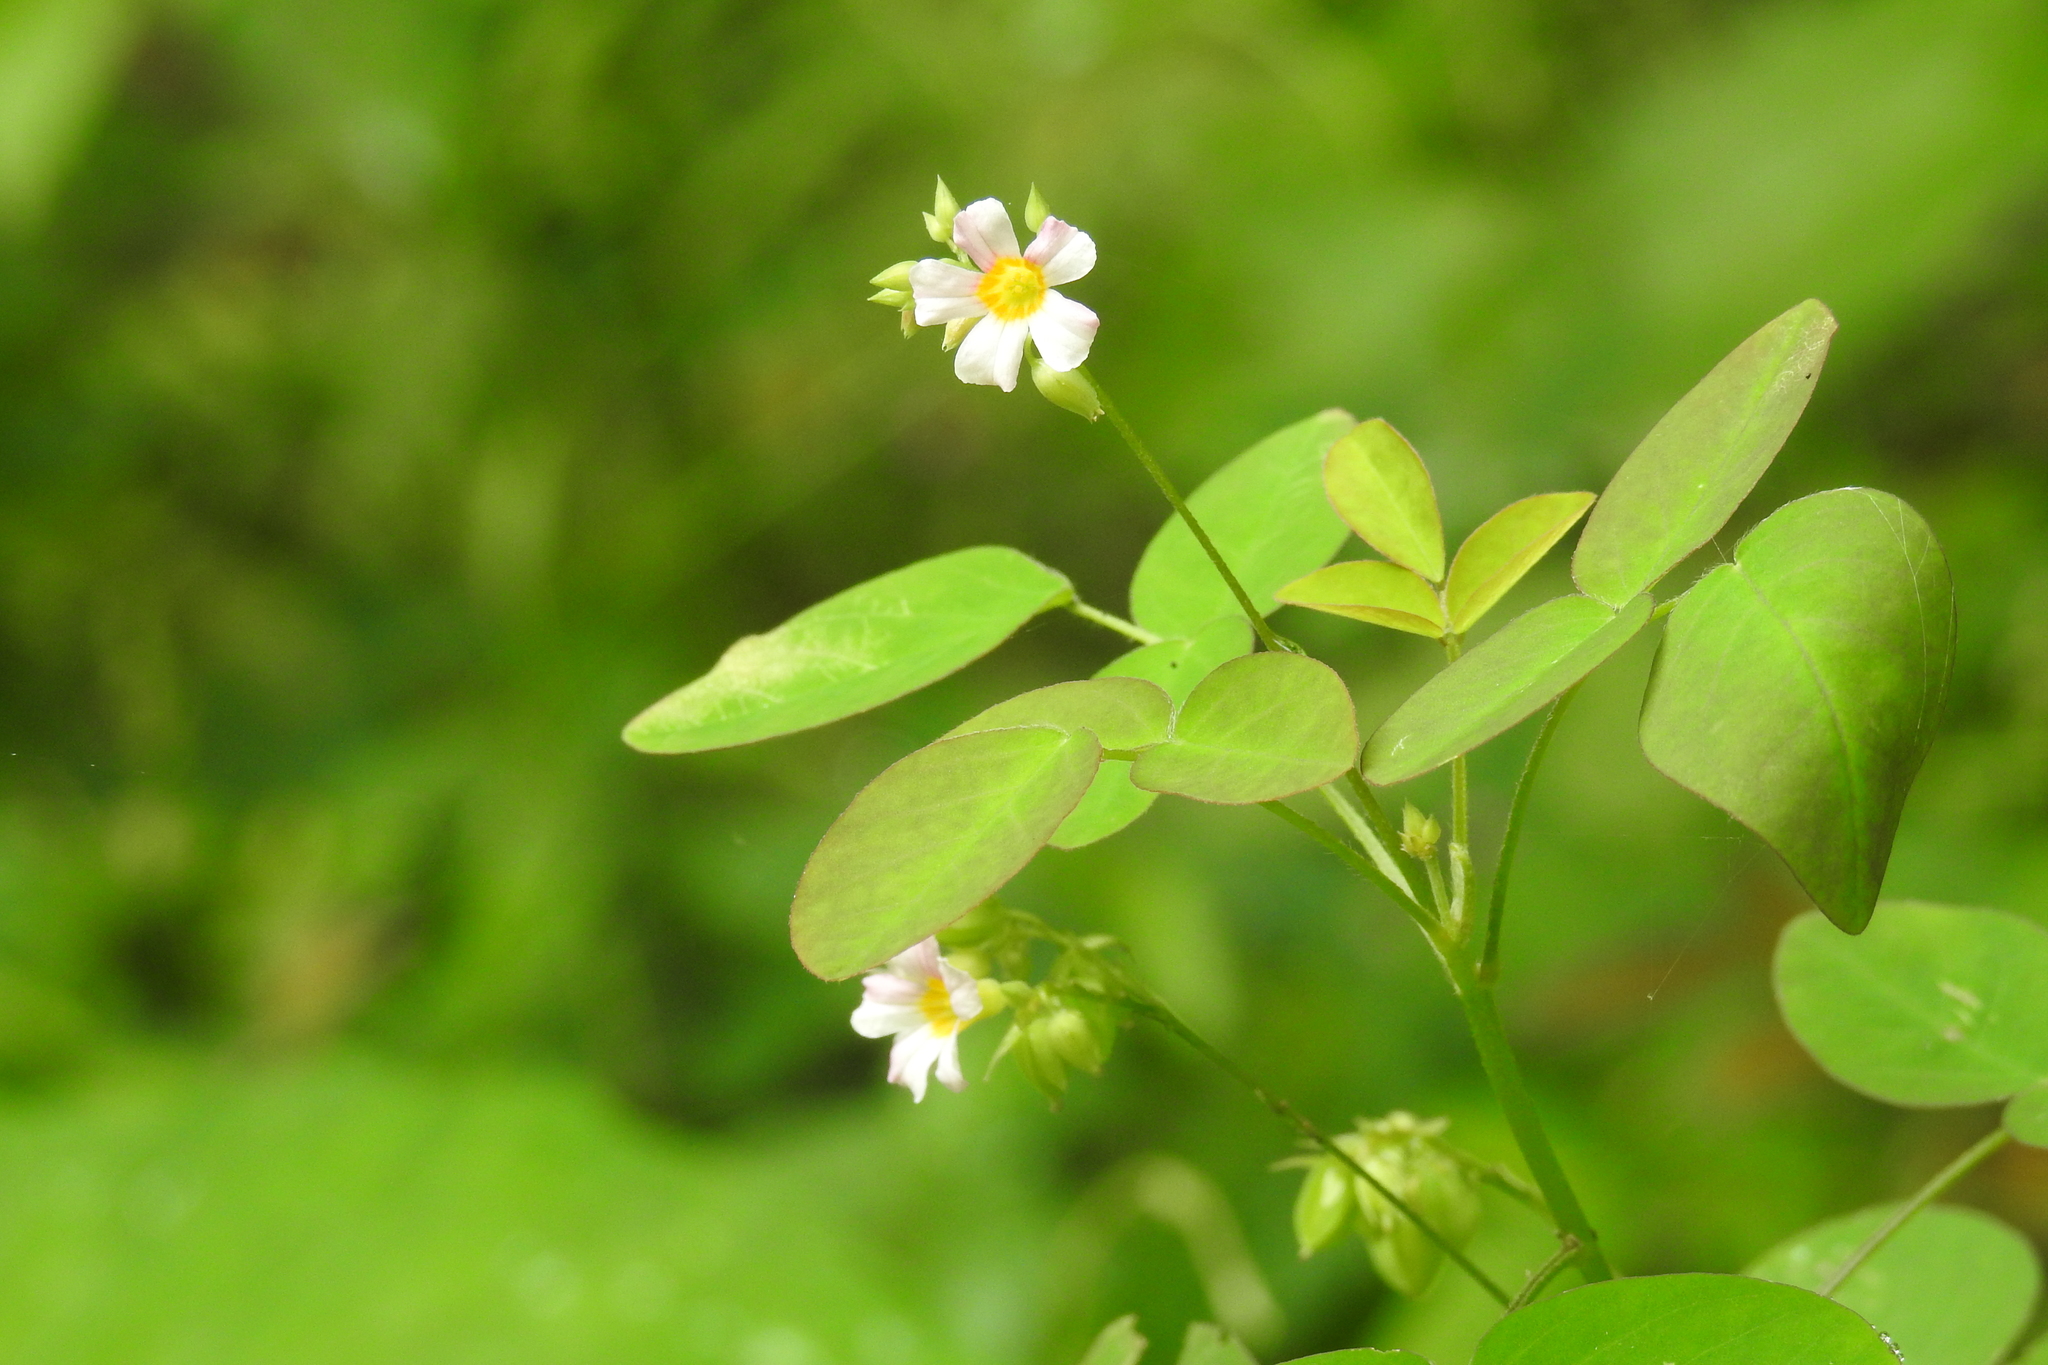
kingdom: Plantae
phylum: Tracheophyta
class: Magnoliopsida
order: Oxalidales
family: Oxalidaceae
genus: Oxalis
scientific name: Oxalis barrelieri
